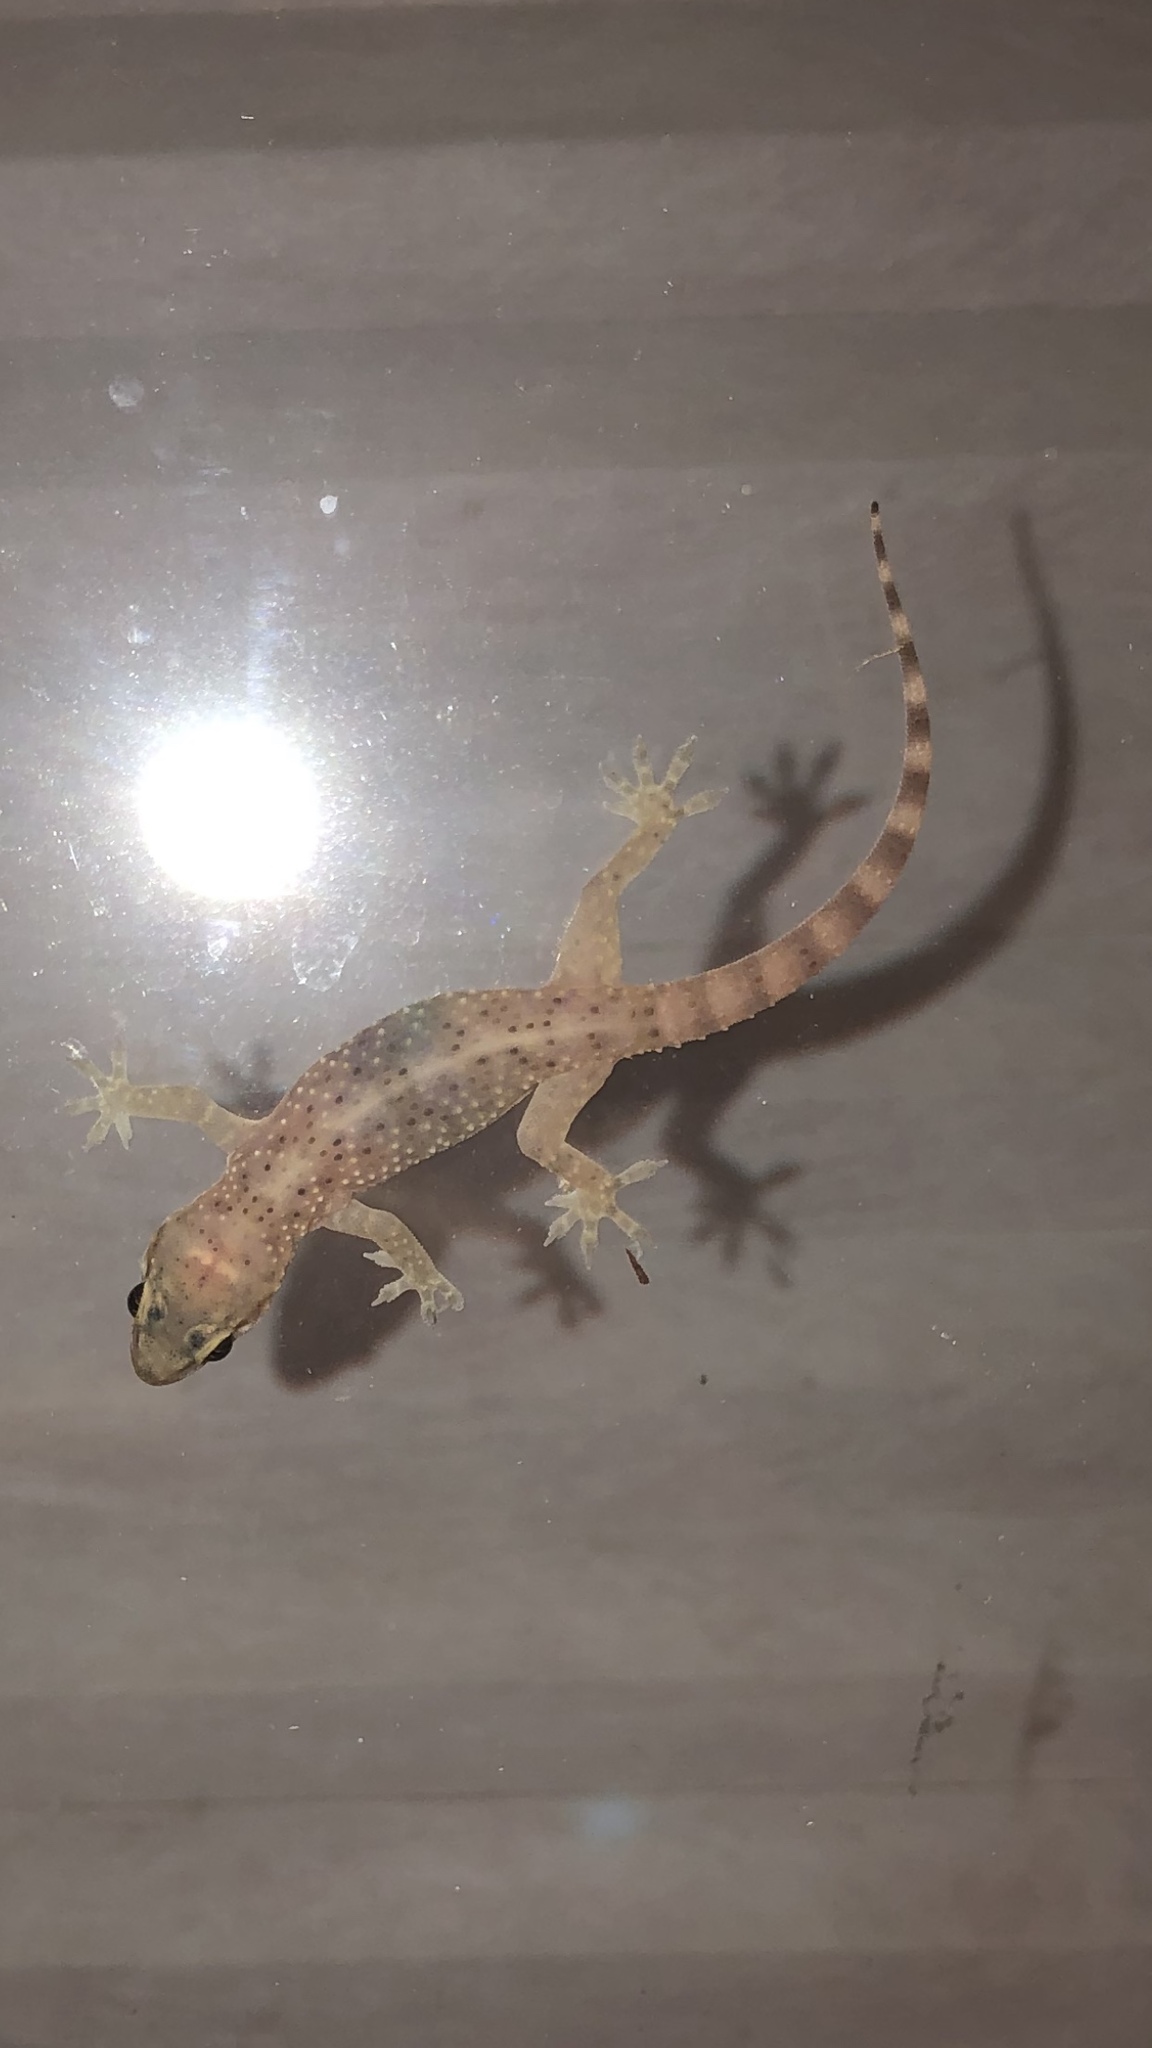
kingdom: Animalia
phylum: Chordata
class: Squamata
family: Gekkonidae
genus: Hemidactylus
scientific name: Hemidactylus turcicus
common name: Turkish gecko
